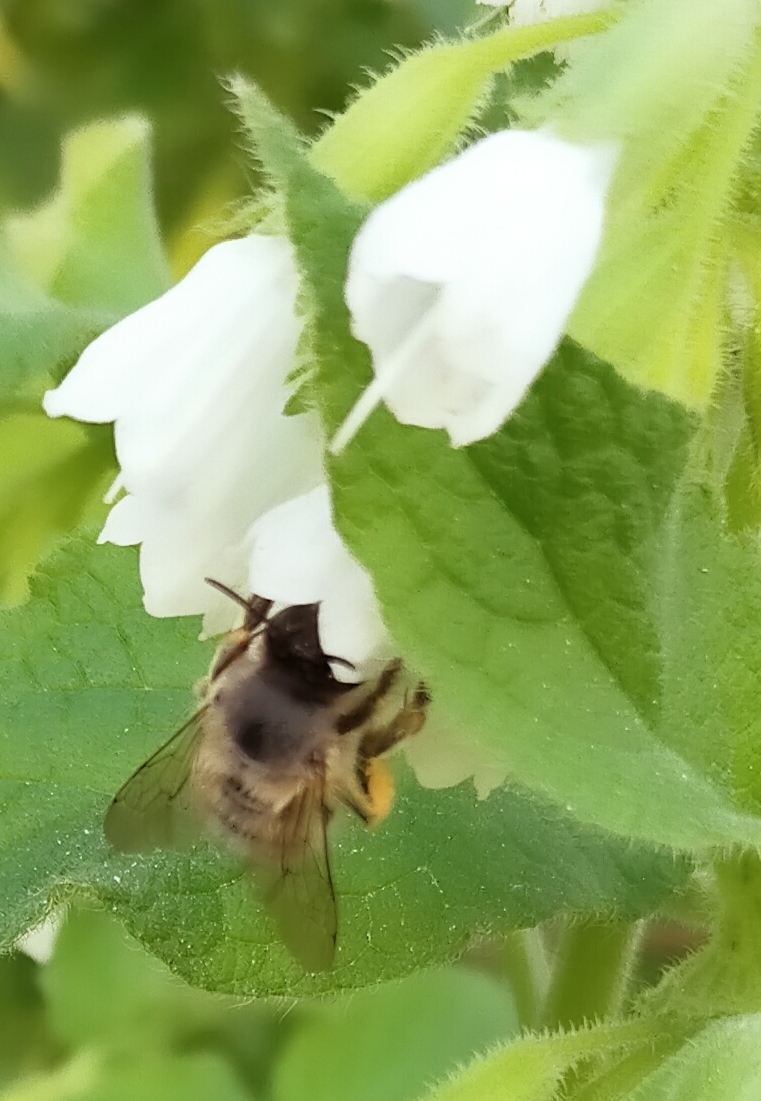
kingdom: Animalia
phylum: Arthropoda
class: Insecta
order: Hymenoptera
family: Apidae
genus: Apis
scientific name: Apis mellifera
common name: Honey bee
